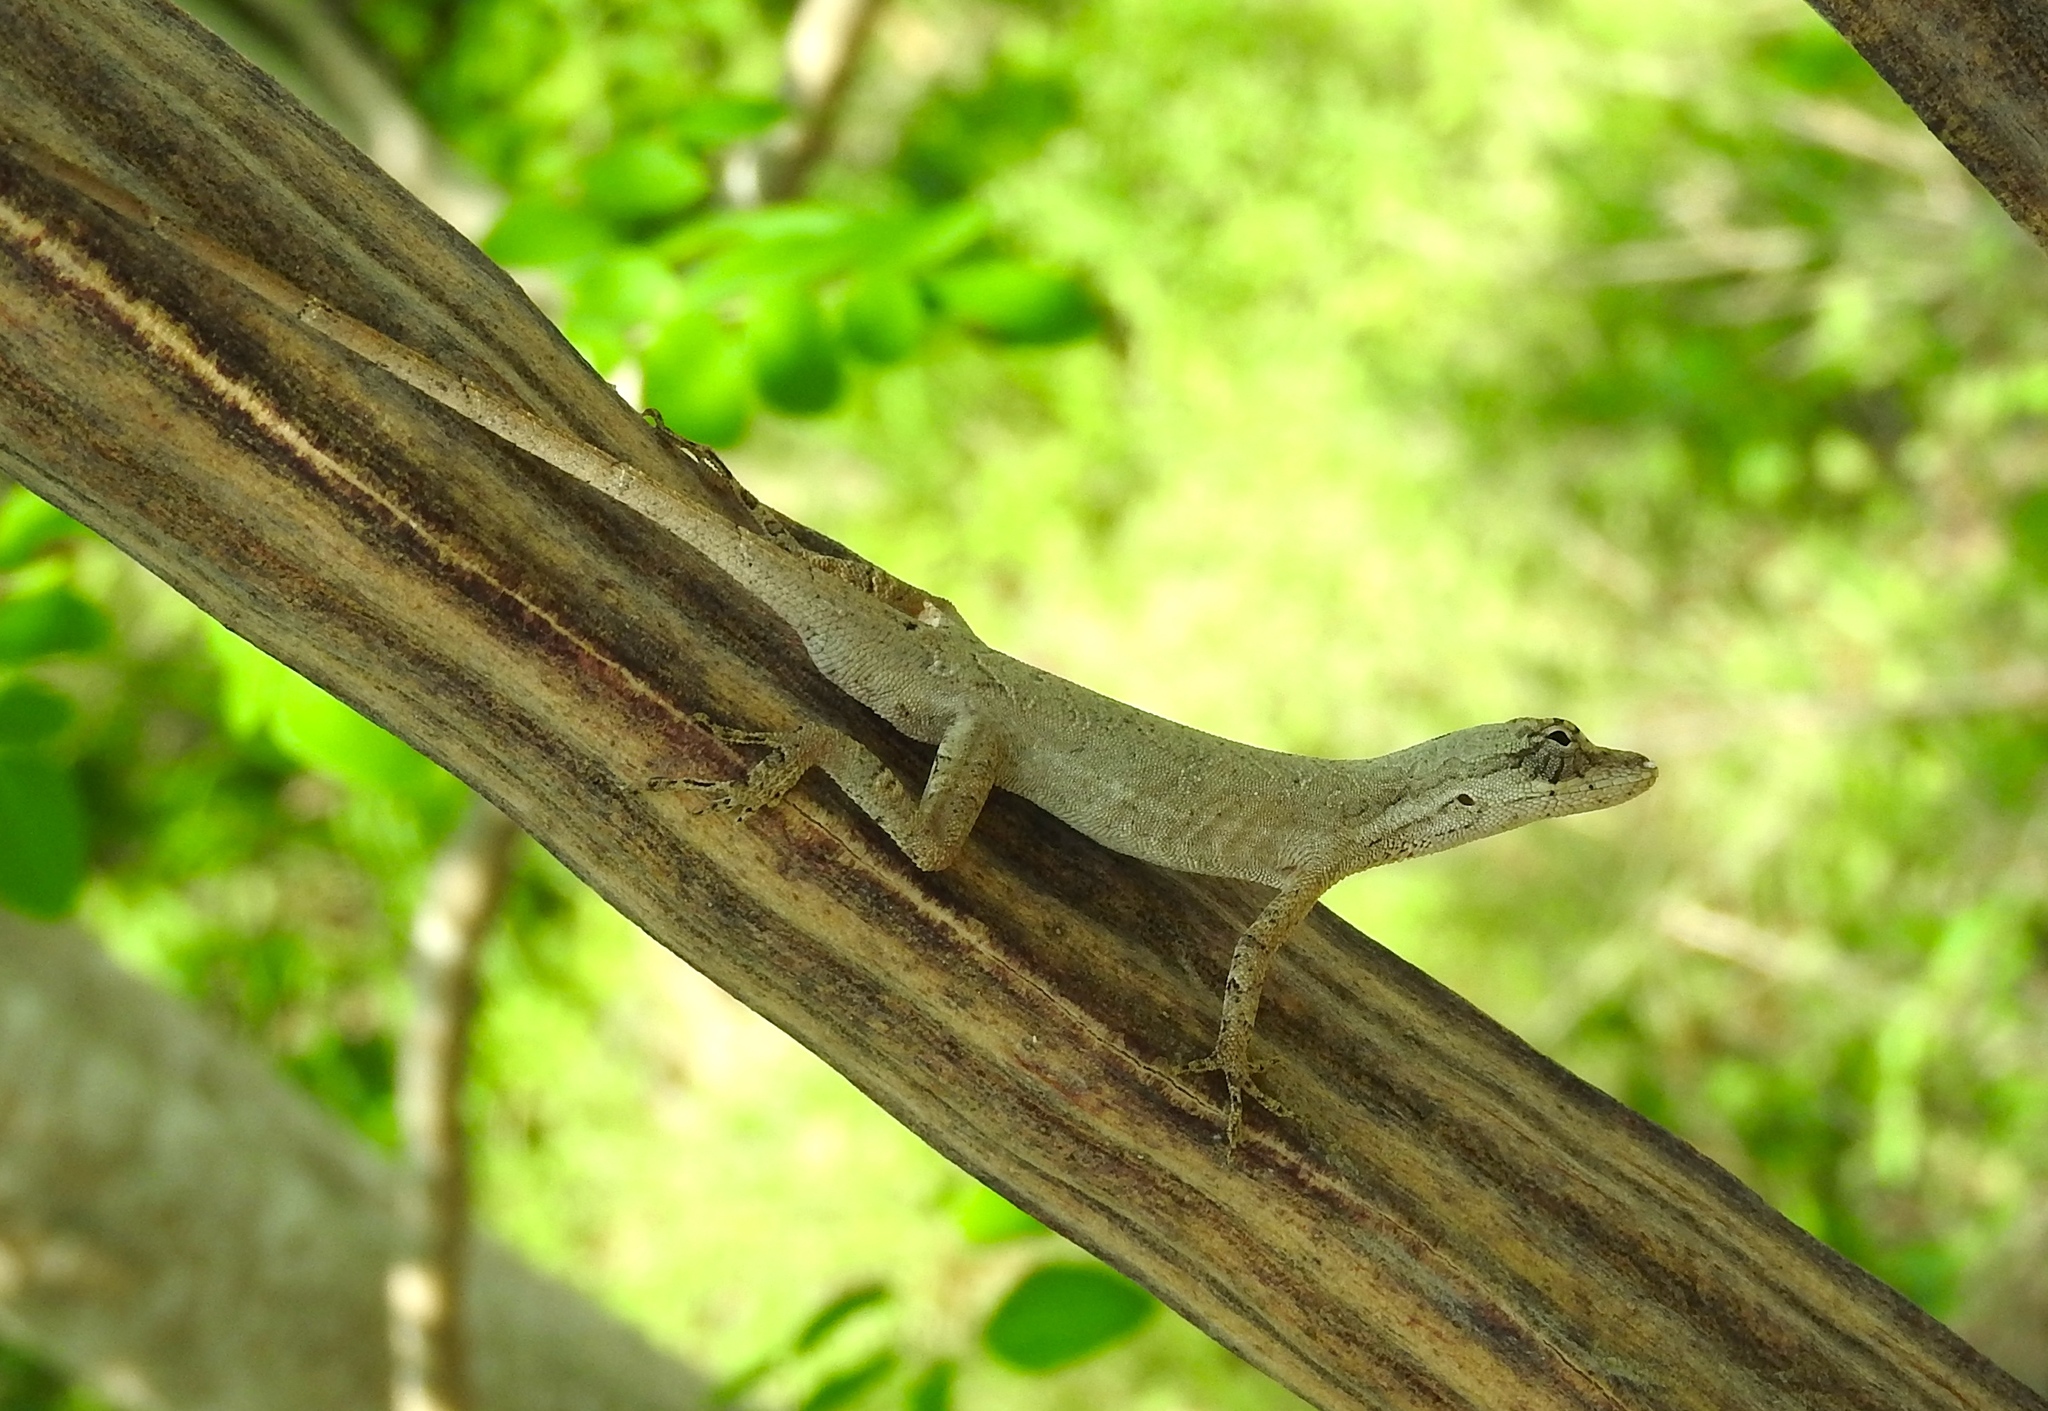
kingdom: Animalia
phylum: Chordata
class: Squamata
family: Dactyloidae
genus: Anolis
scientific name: Anolis nebulosus
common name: Clouded anole
